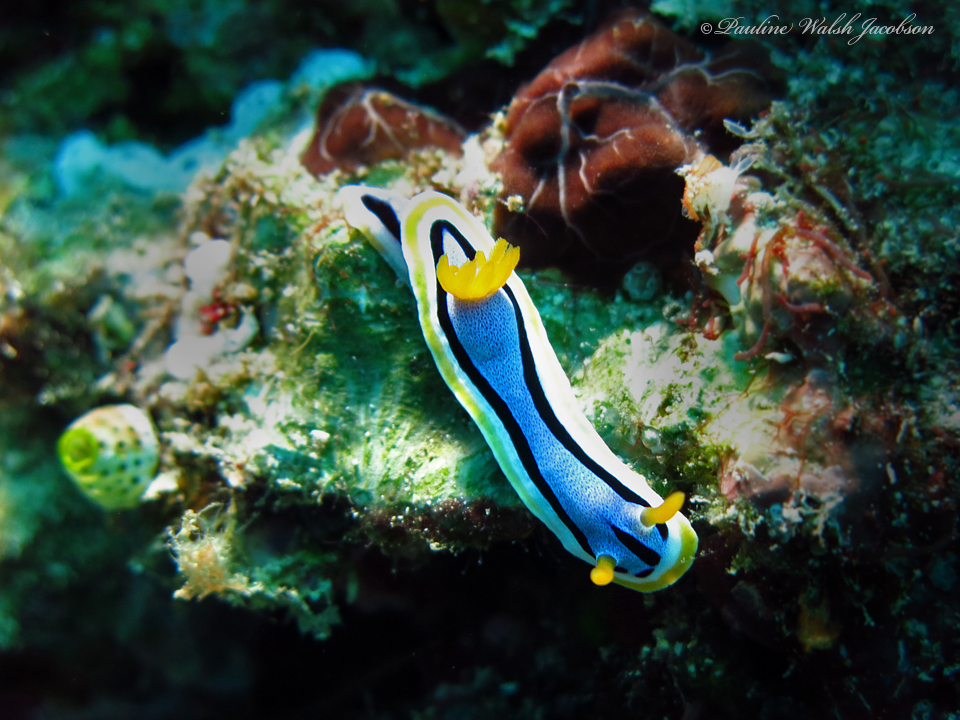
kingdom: Animalia
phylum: Mollusca
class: Gastropoda
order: Nudibranchia
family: Chromodorididae
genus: Chromodoris
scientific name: Chromodoris annae
